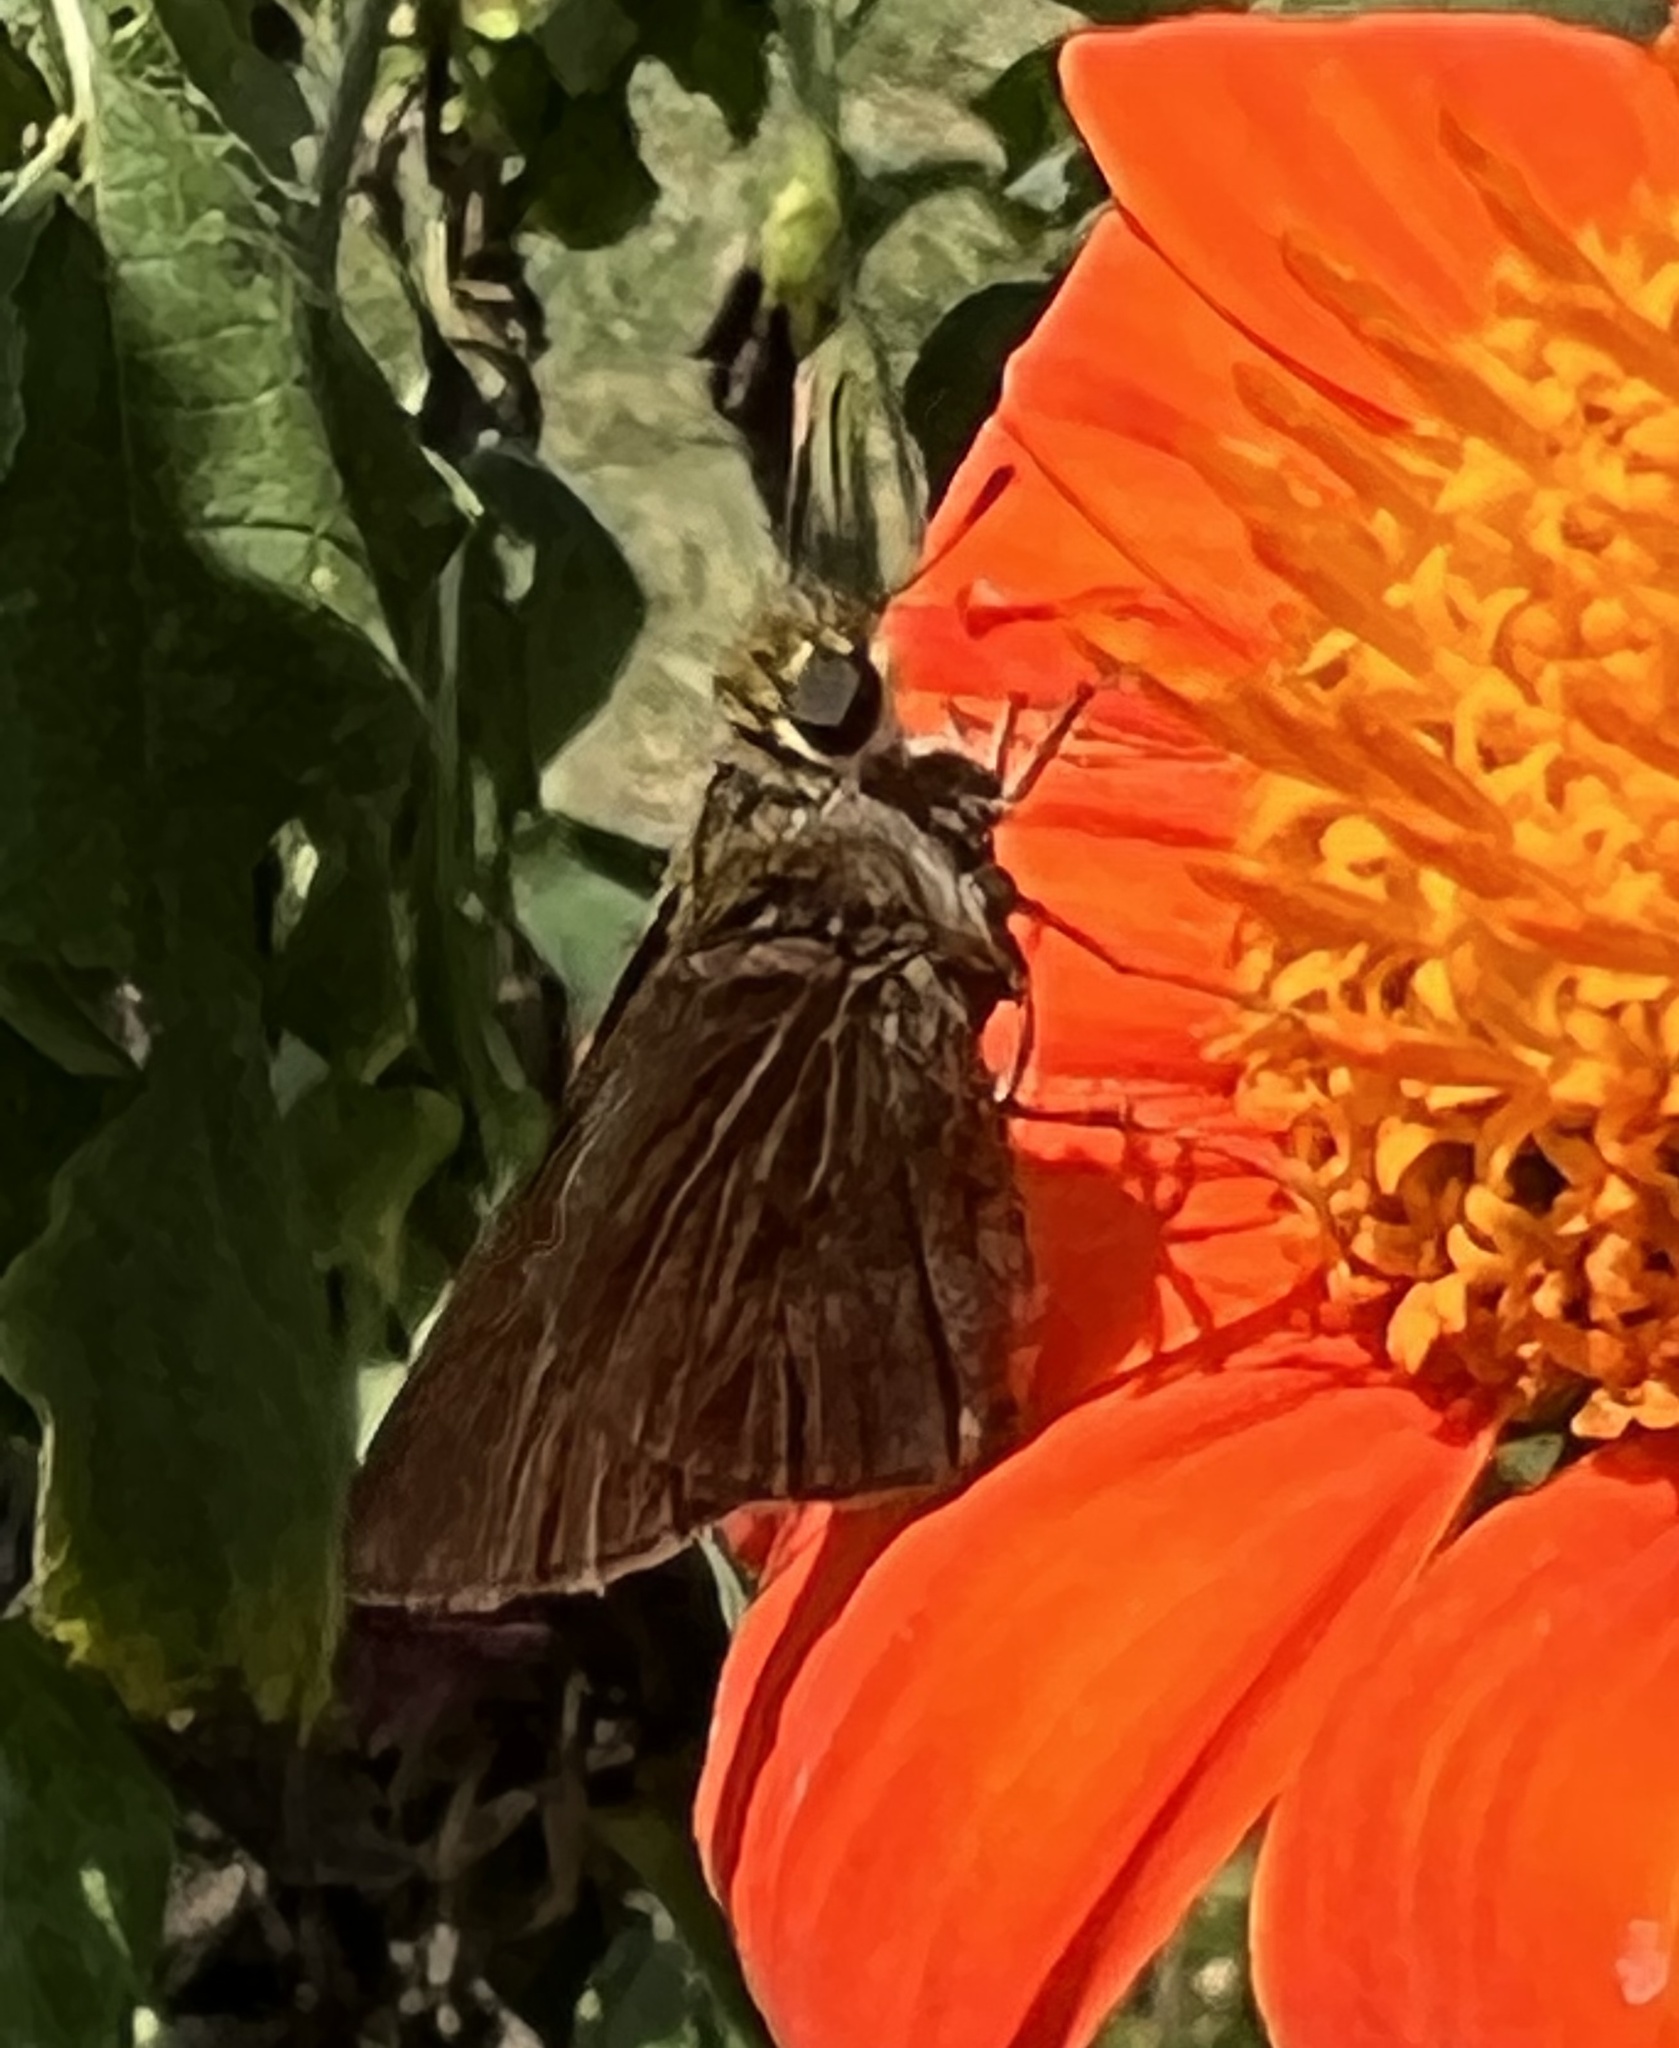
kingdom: Animalia
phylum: Arthropoda
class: Insecta
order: Lepidoptera
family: Hesperiidae
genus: Euphyes
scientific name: Euphyes vestris
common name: Dun skipper
